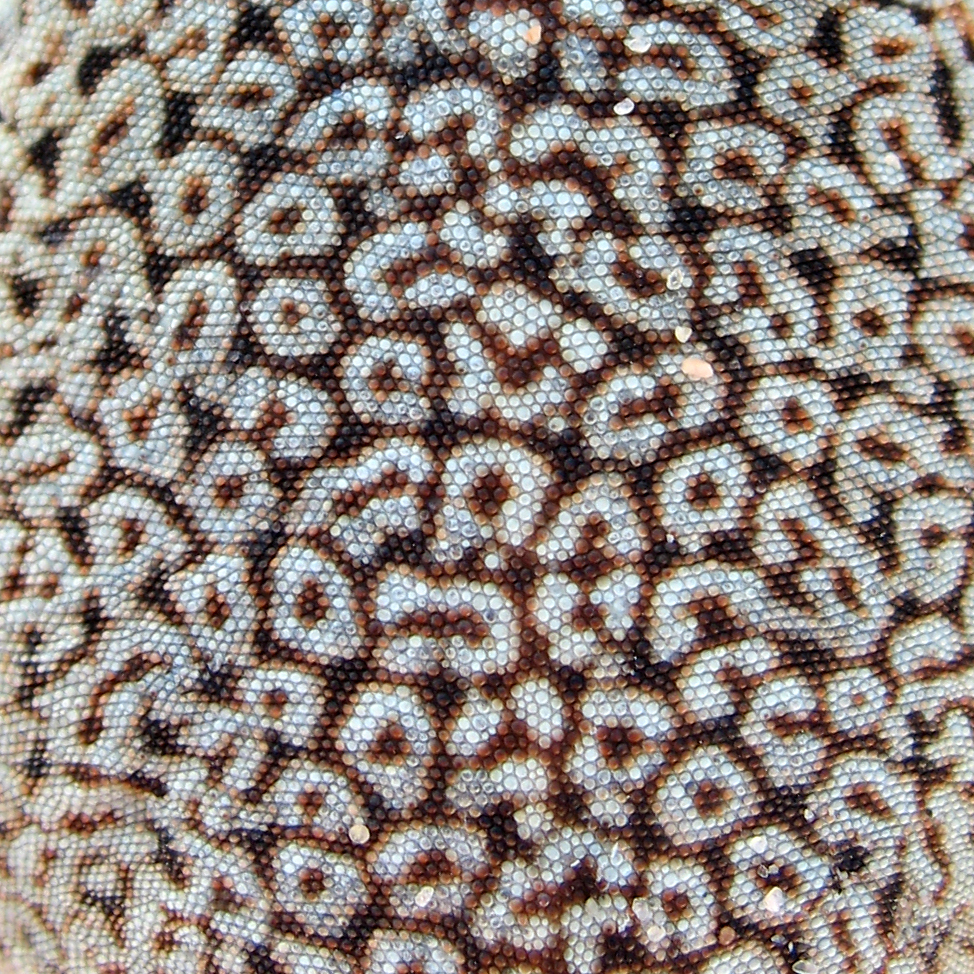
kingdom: Animalia
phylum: Chordata
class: Squamata
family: Phrynosomatidae
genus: Uma
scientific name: Uma scoparia
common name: Mojave fringe-toed lizard
